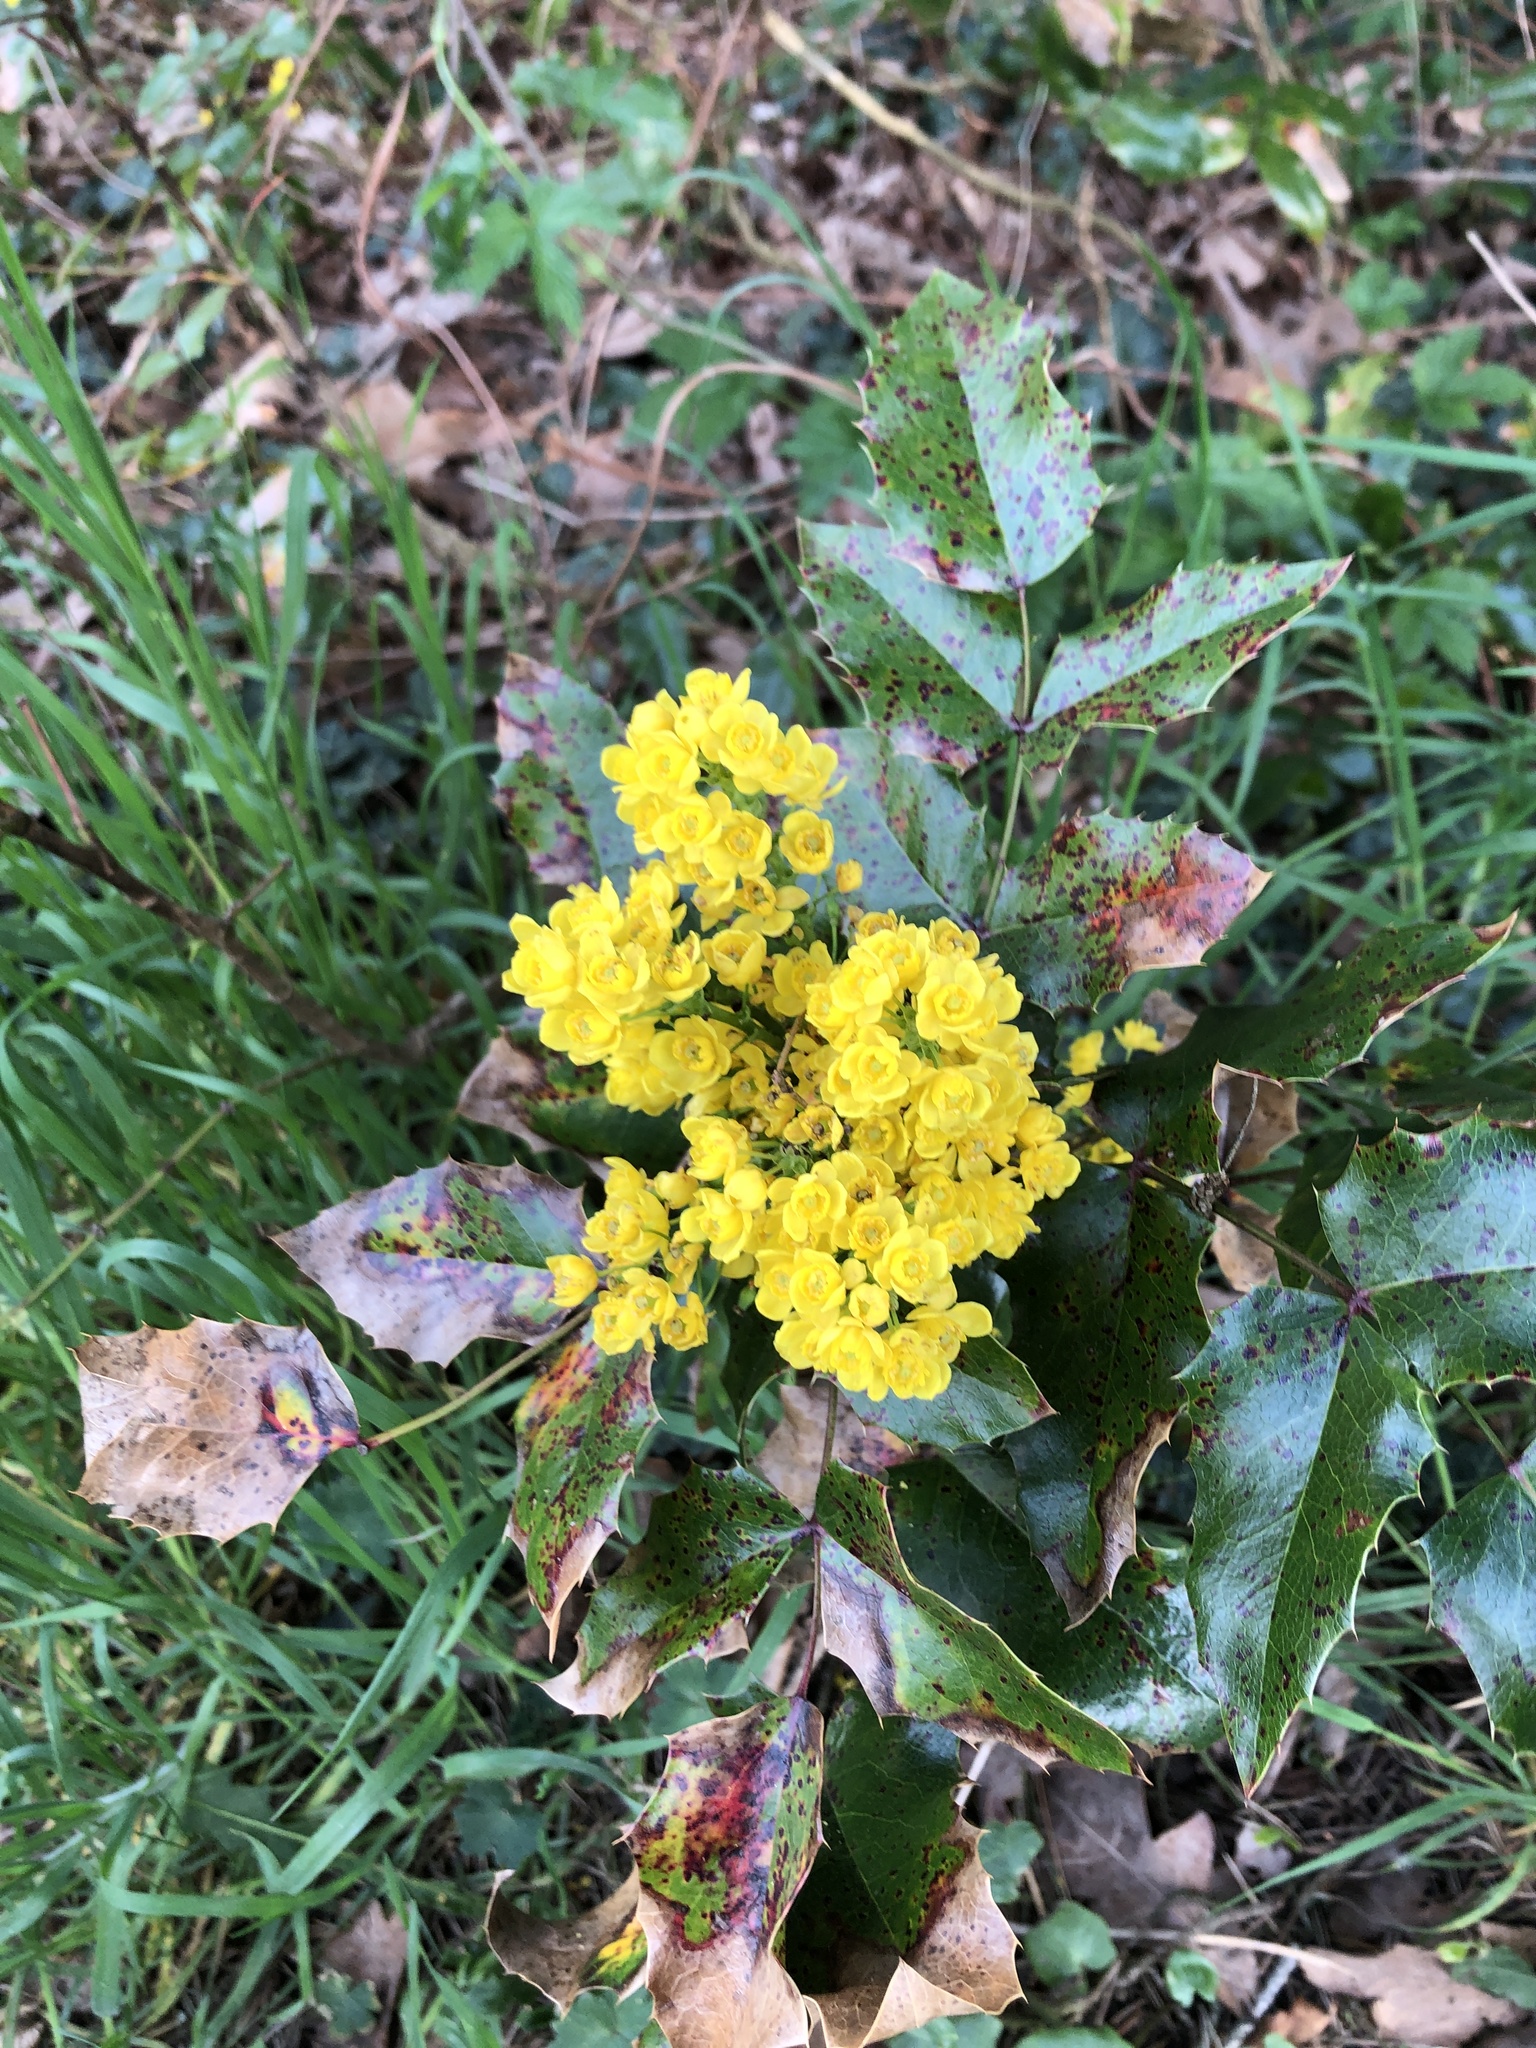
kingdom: Plantae
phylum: Tracheophyta
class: Magnoliopsida
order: Ranunculales
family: Berberidaceae
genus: Mahonia
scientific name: Mahonia aquifolium
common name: Oregon-grape
